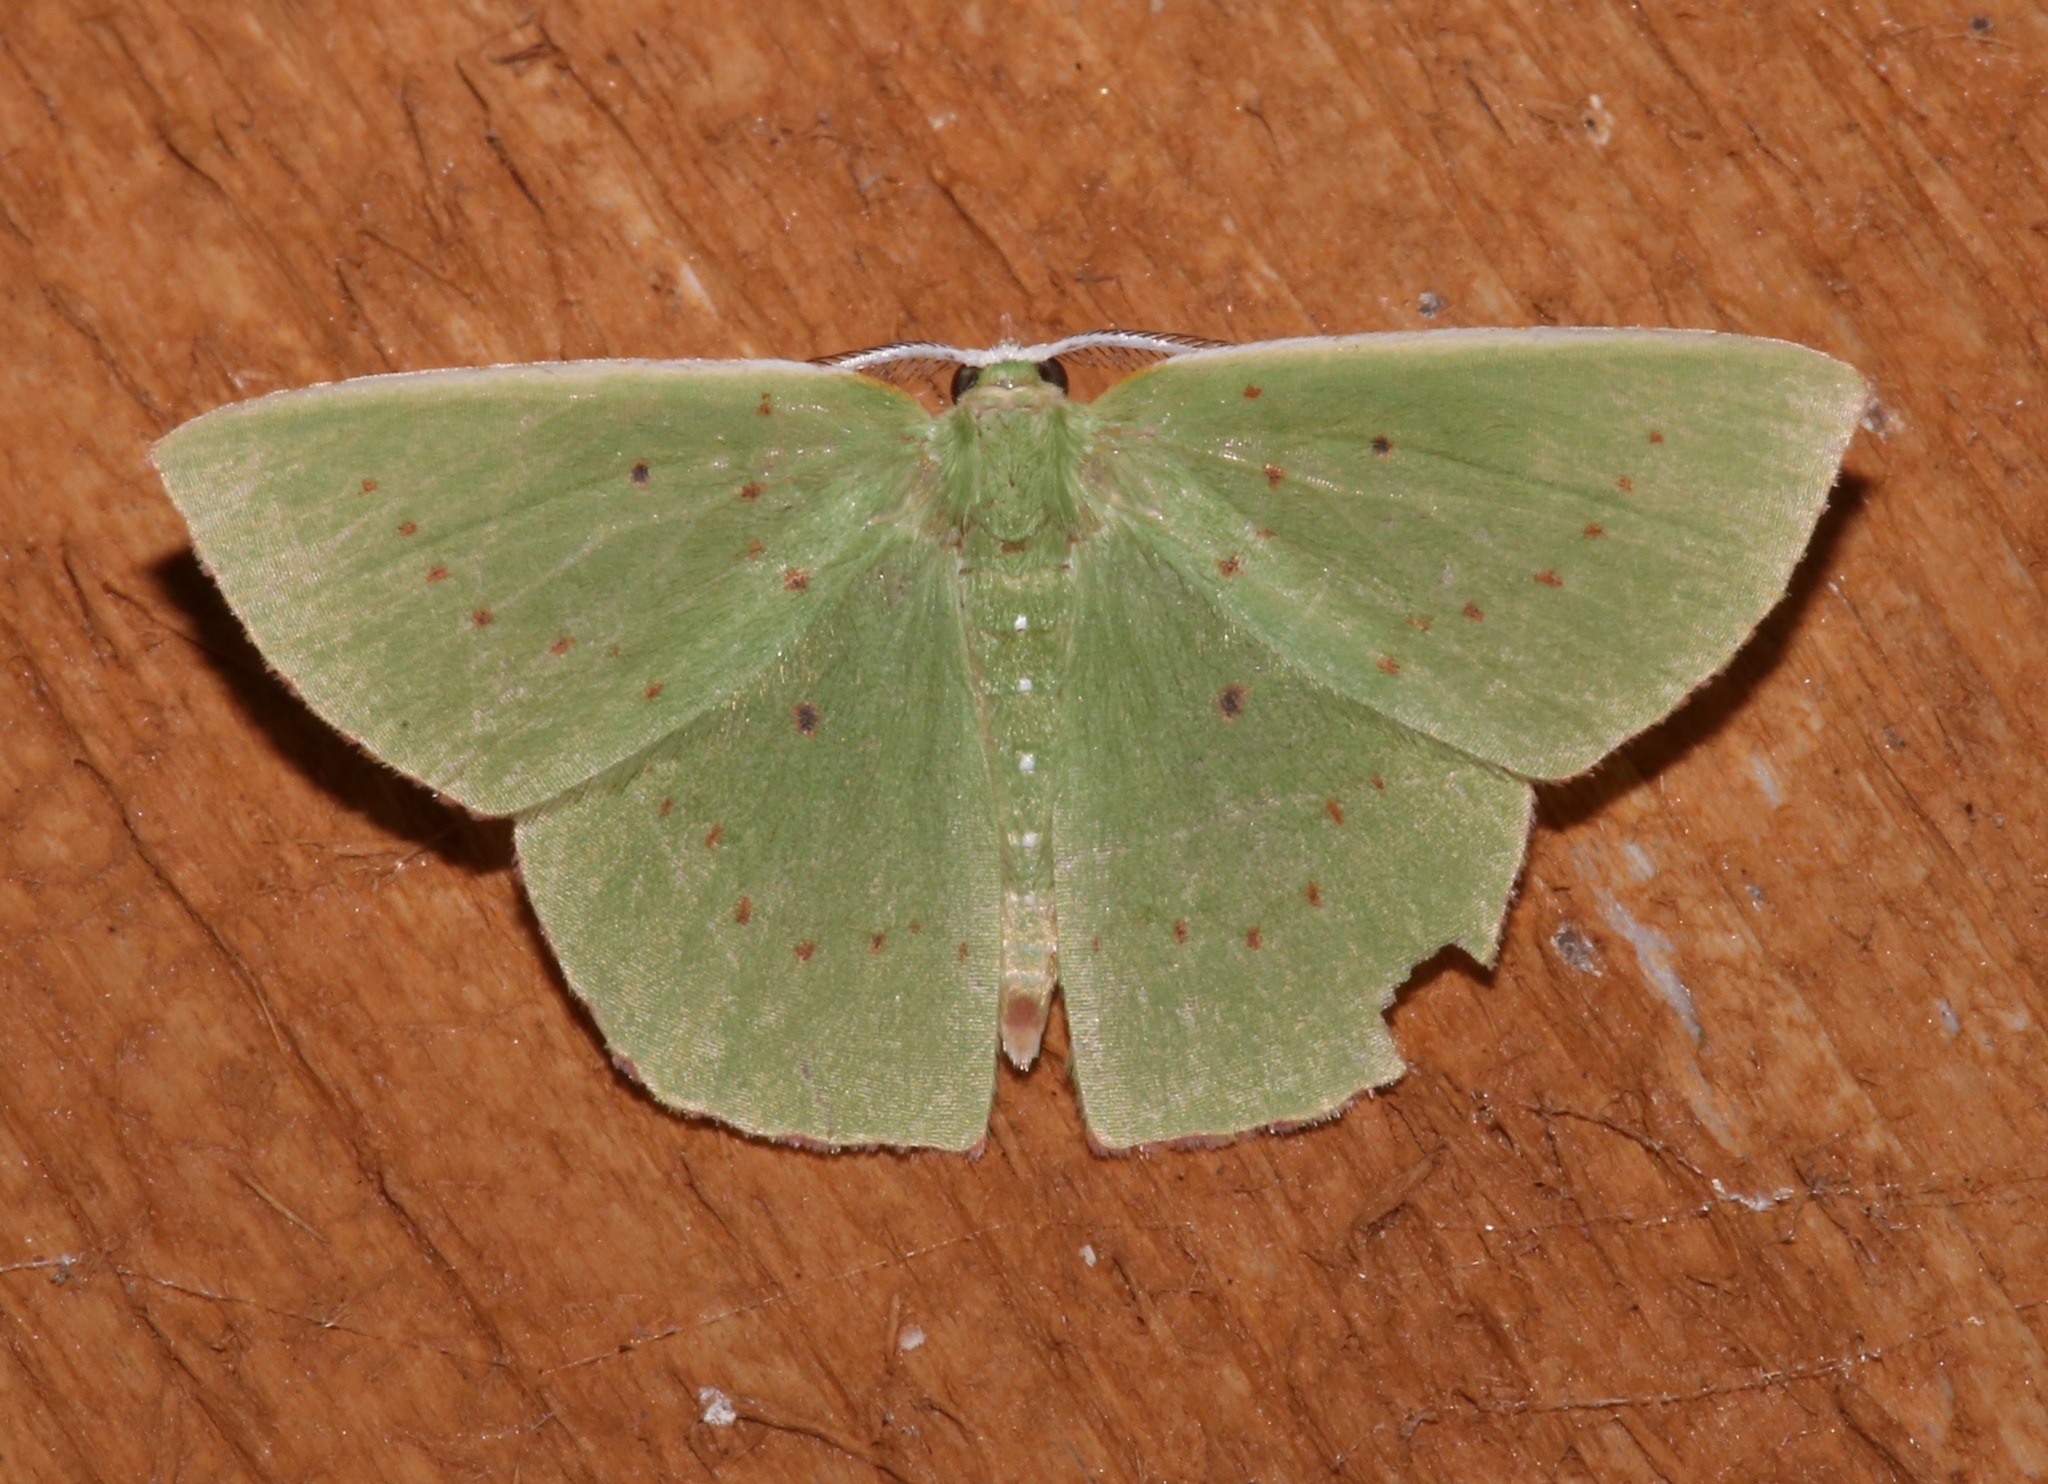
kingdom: Animalia
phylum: Arthropoda
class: Insecta
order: Lepidoptera
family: Geometridae
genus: Phrudocentra
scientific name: Phrudocentra centrifugaria
